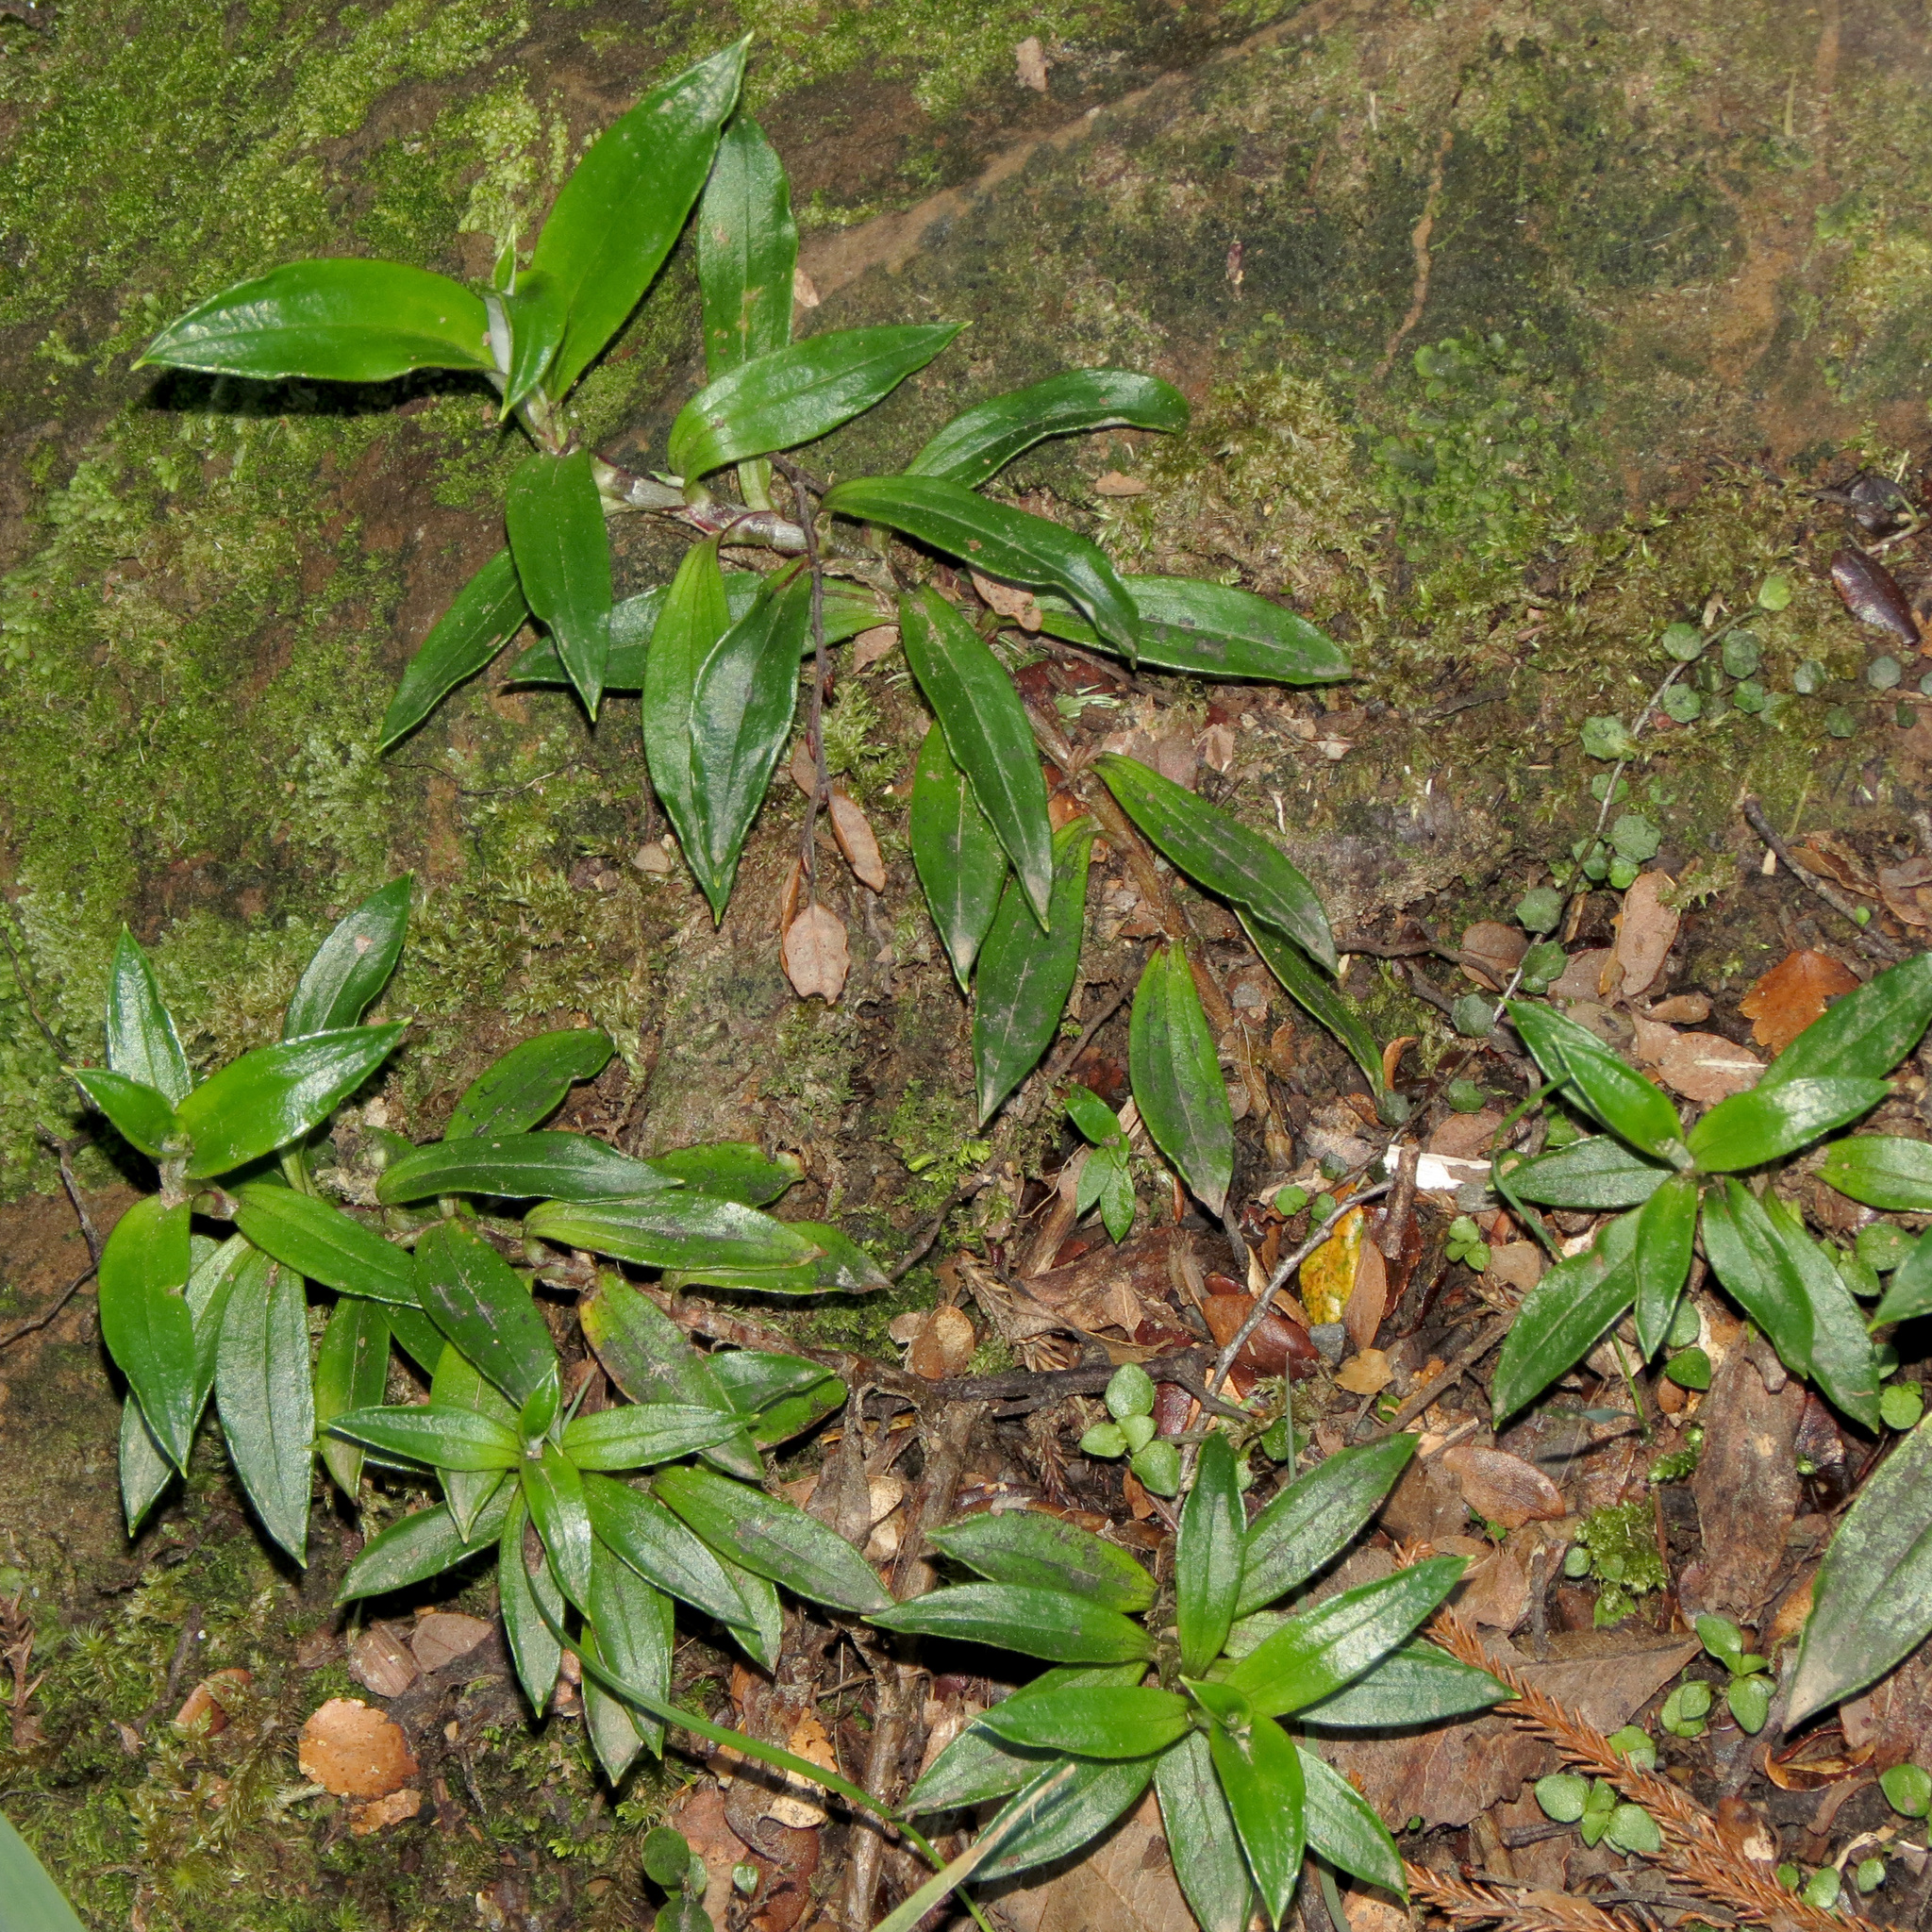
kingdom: Plantae
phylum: Tracheophyta
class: Magnoliopsida
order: Asterales
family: Asteraceae
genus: Anaphalioides
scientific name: Anaphalioides trinervis
